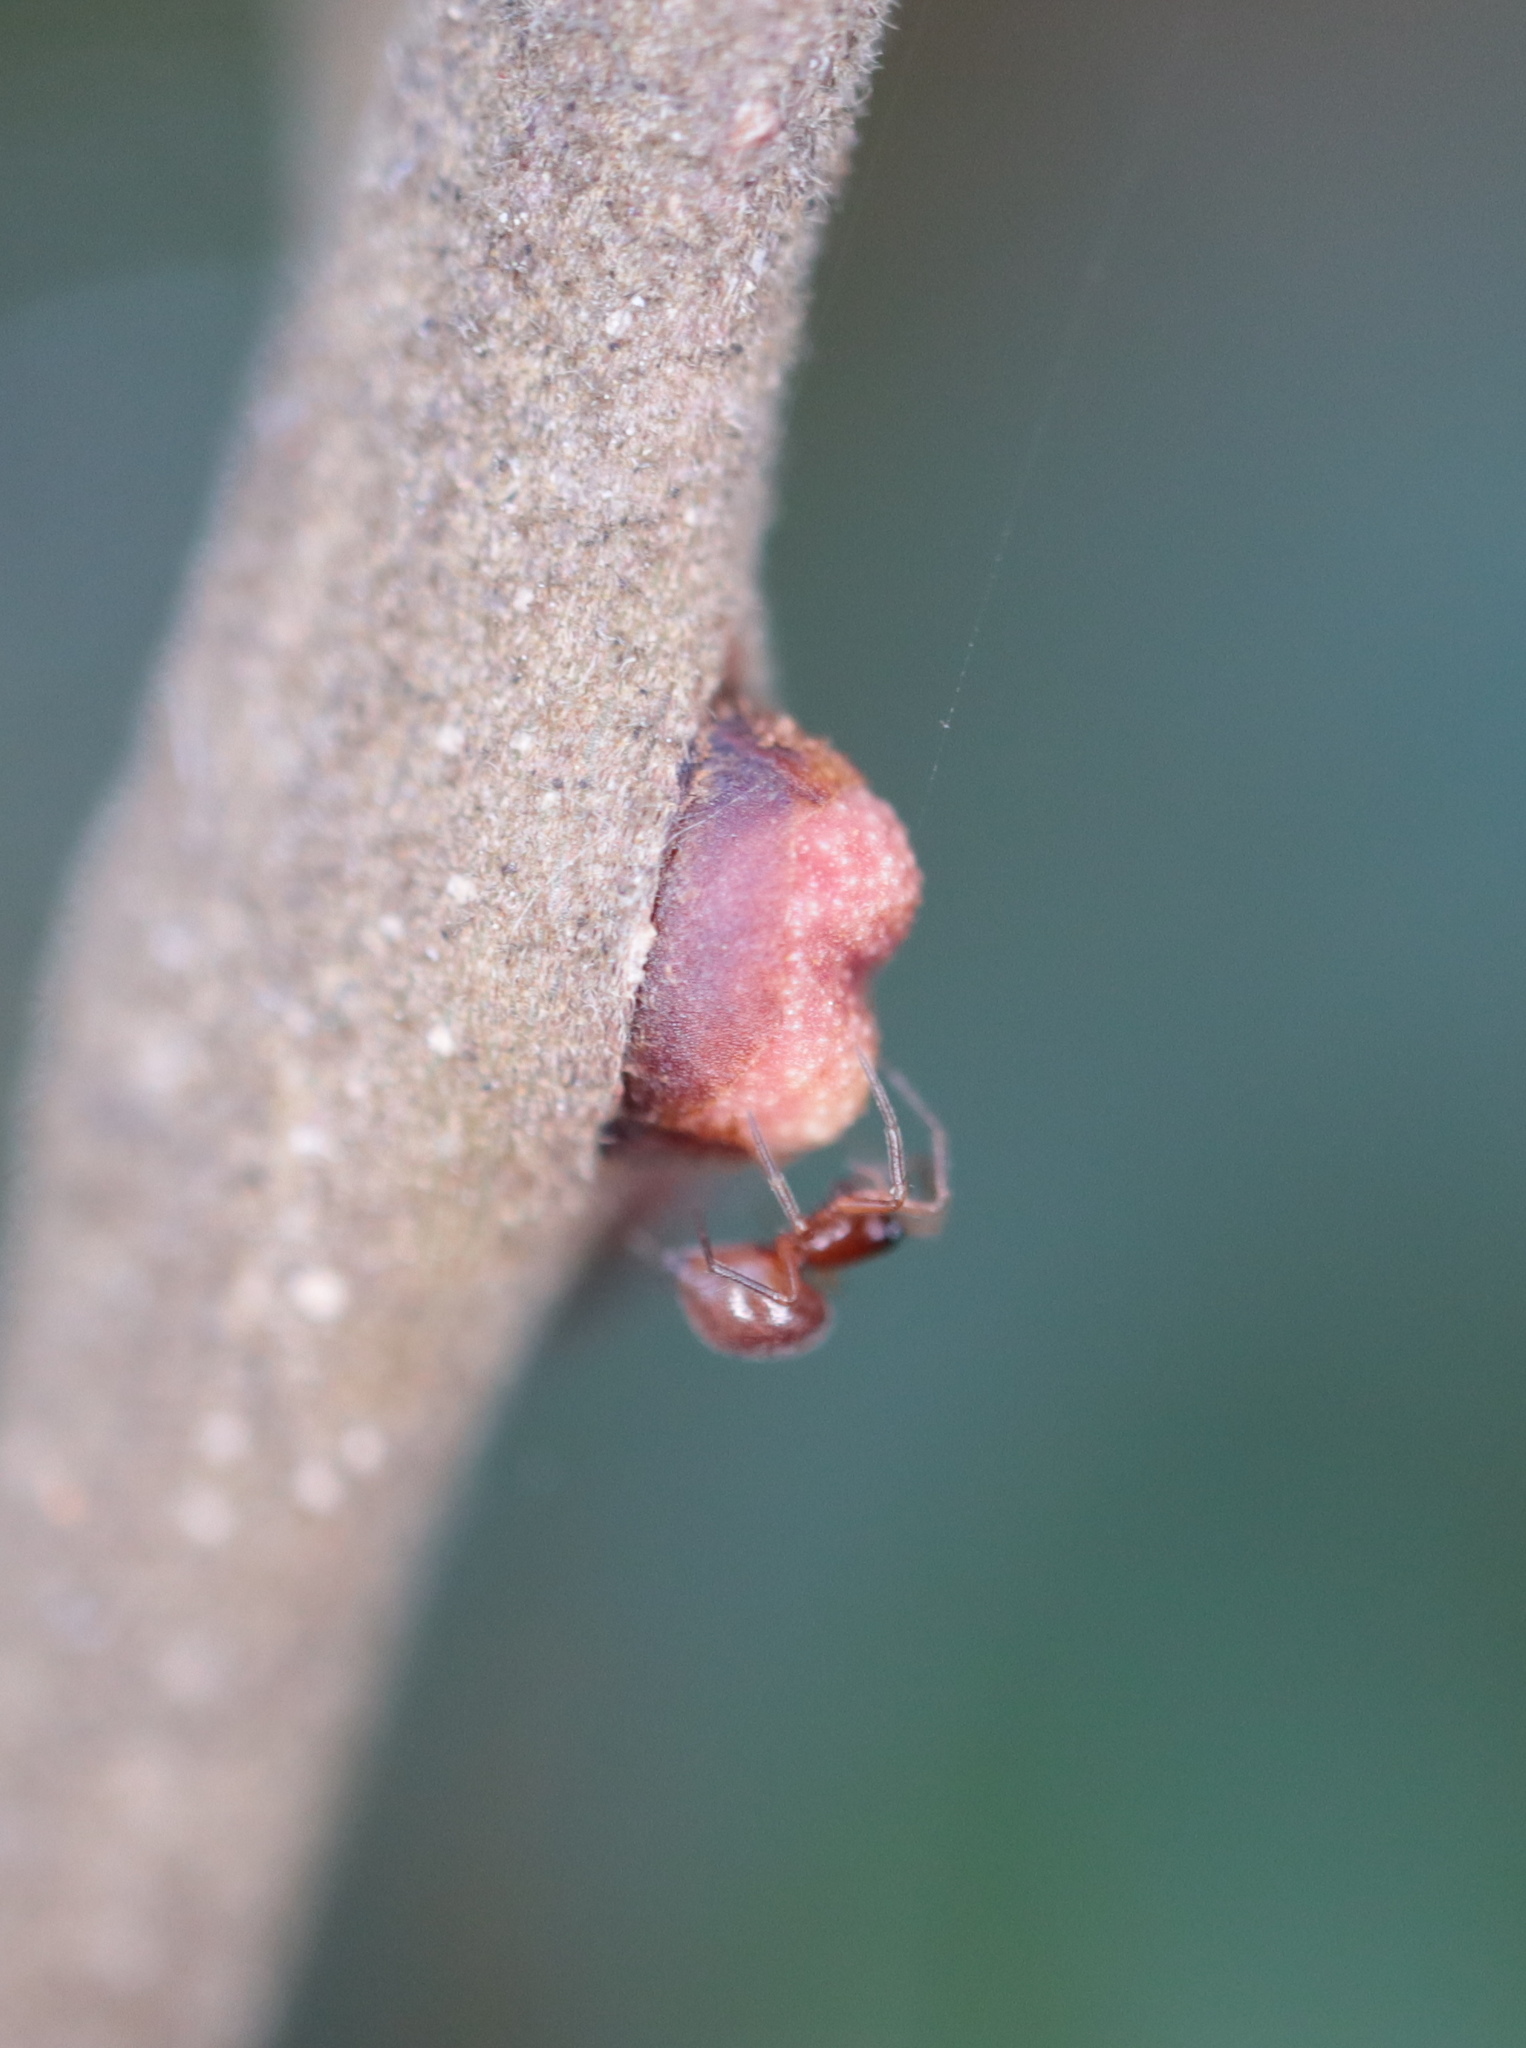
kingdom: Animalia
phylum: Arthropoda
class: Insecta
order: Hymenoptera
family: Cynipidae
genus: Kokkocynips
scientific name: Kokkocynips imbricariae
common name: Banded bullet gall wasp
